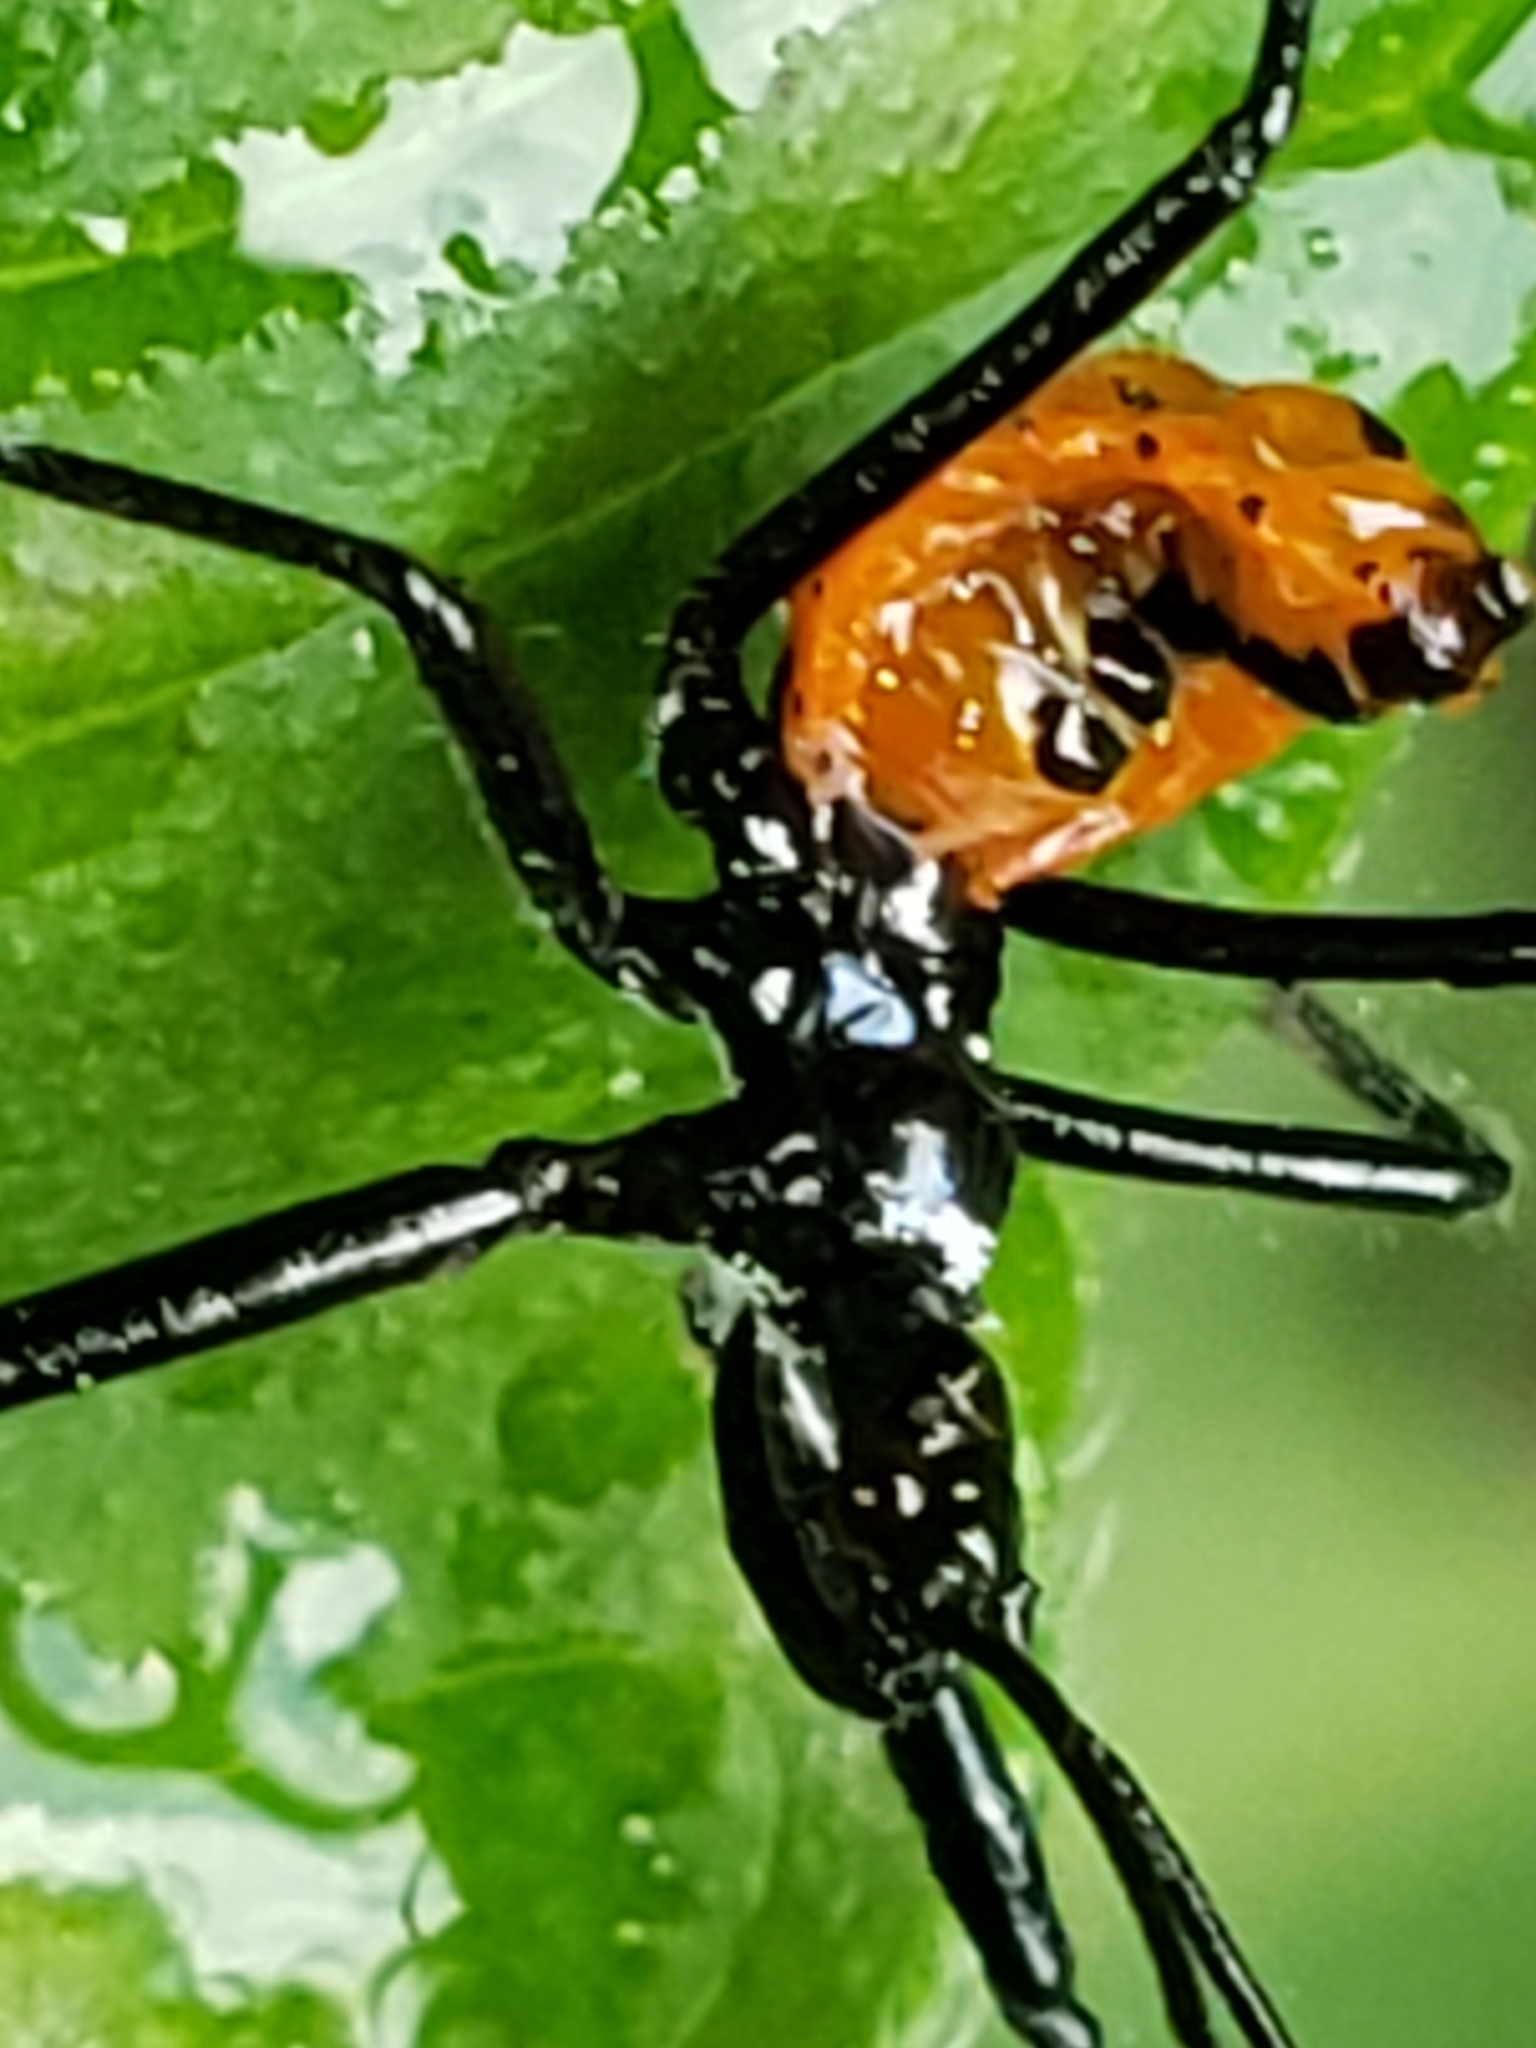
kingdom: Animalia
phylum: Arthropoda
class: Insecta
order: Hemiptera
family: Reduviidae
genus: Arilus
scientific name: Arilus cristatus
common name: North american wheel bug
